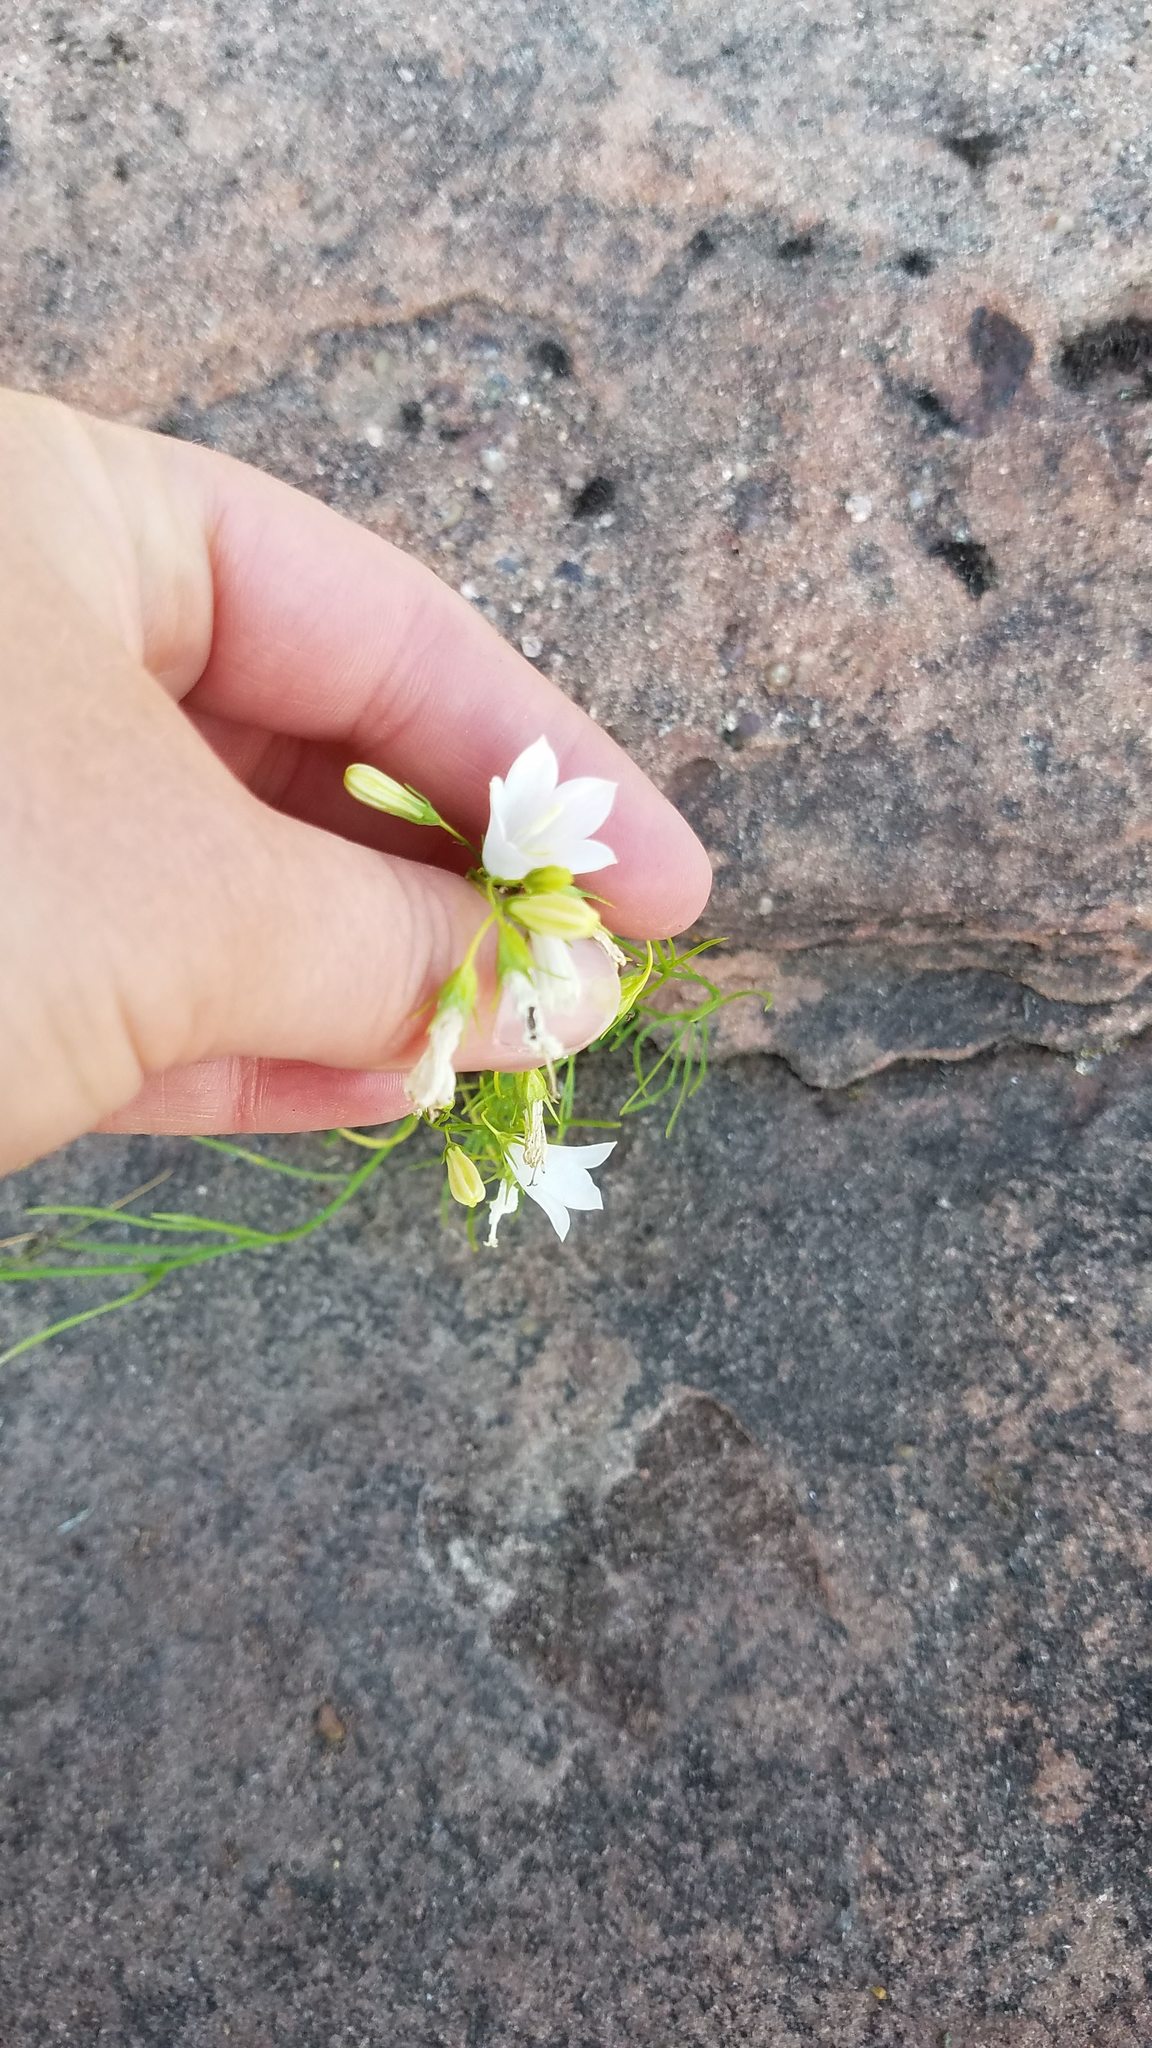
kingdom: Plantae
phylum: Tracheophyta
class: Magnoliopsida
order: Asterales
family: Campanulaceae
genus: Campanula
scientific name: Campanula rotundifolia
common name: Harebell
